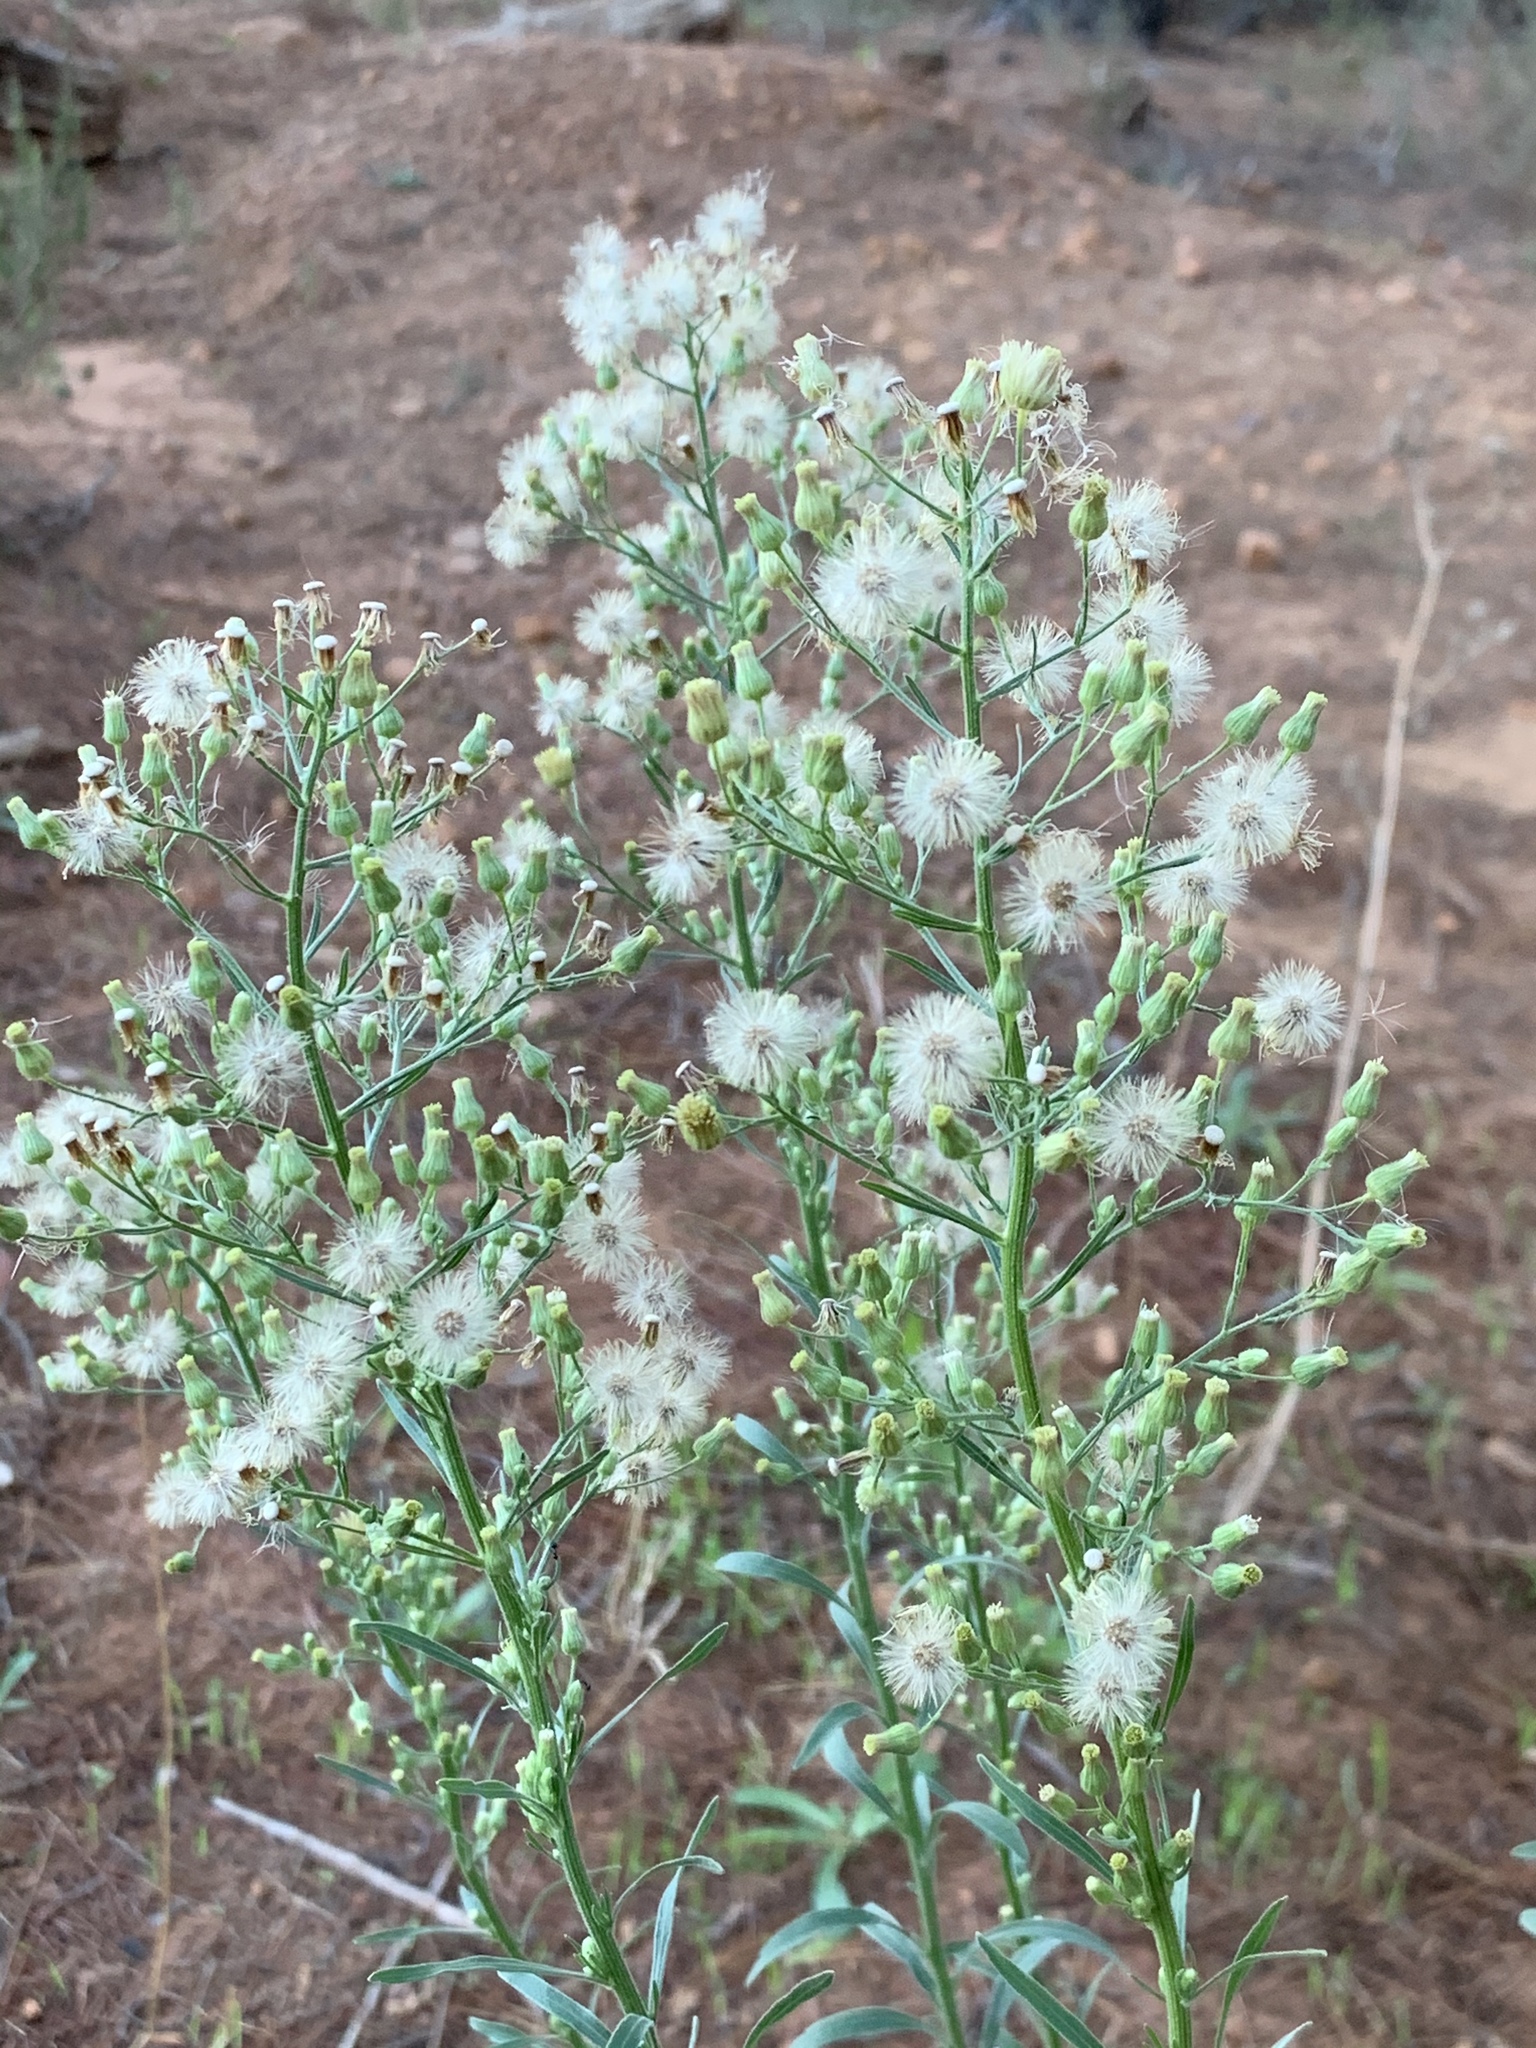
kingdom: Plantae
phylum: Tracheophyta
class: Magnoliopsida
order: Asterales
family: Asteraceae
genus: Erigeron
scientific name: Erigeron sumatrensis
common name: Daisy
